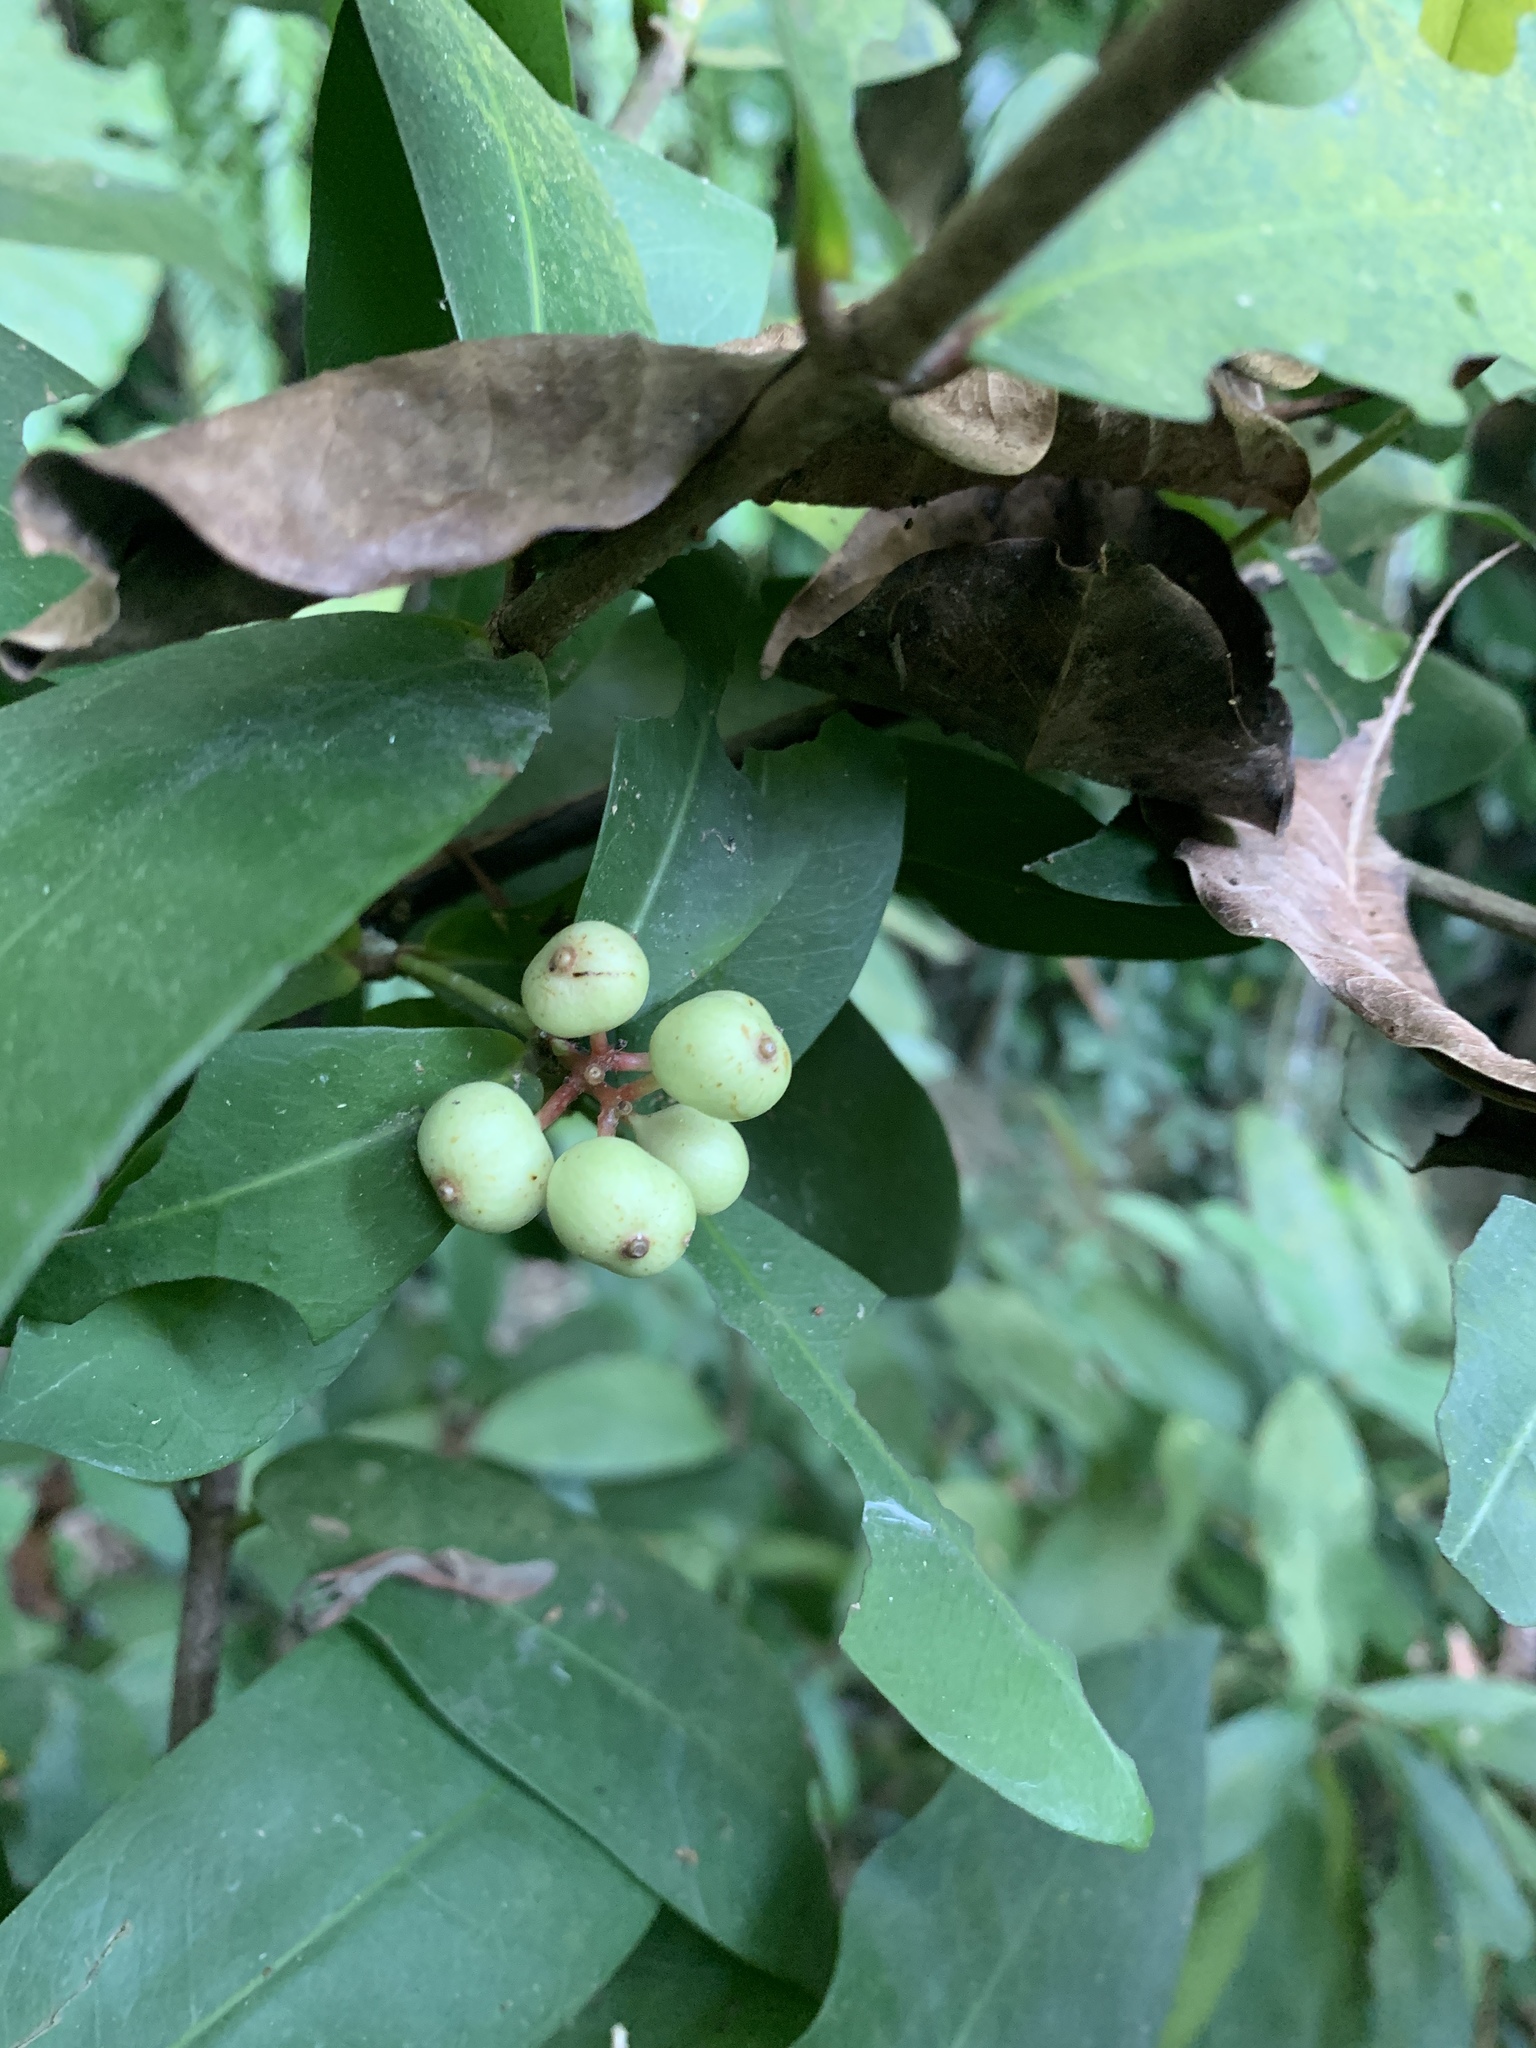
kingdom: Plantae
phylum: Tracheophyta
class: Magnoliopsida
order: Myrtales
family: Myrtaceae
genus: Syzygium
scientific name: Syzygium samarangense
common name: Semarang rose-apple
